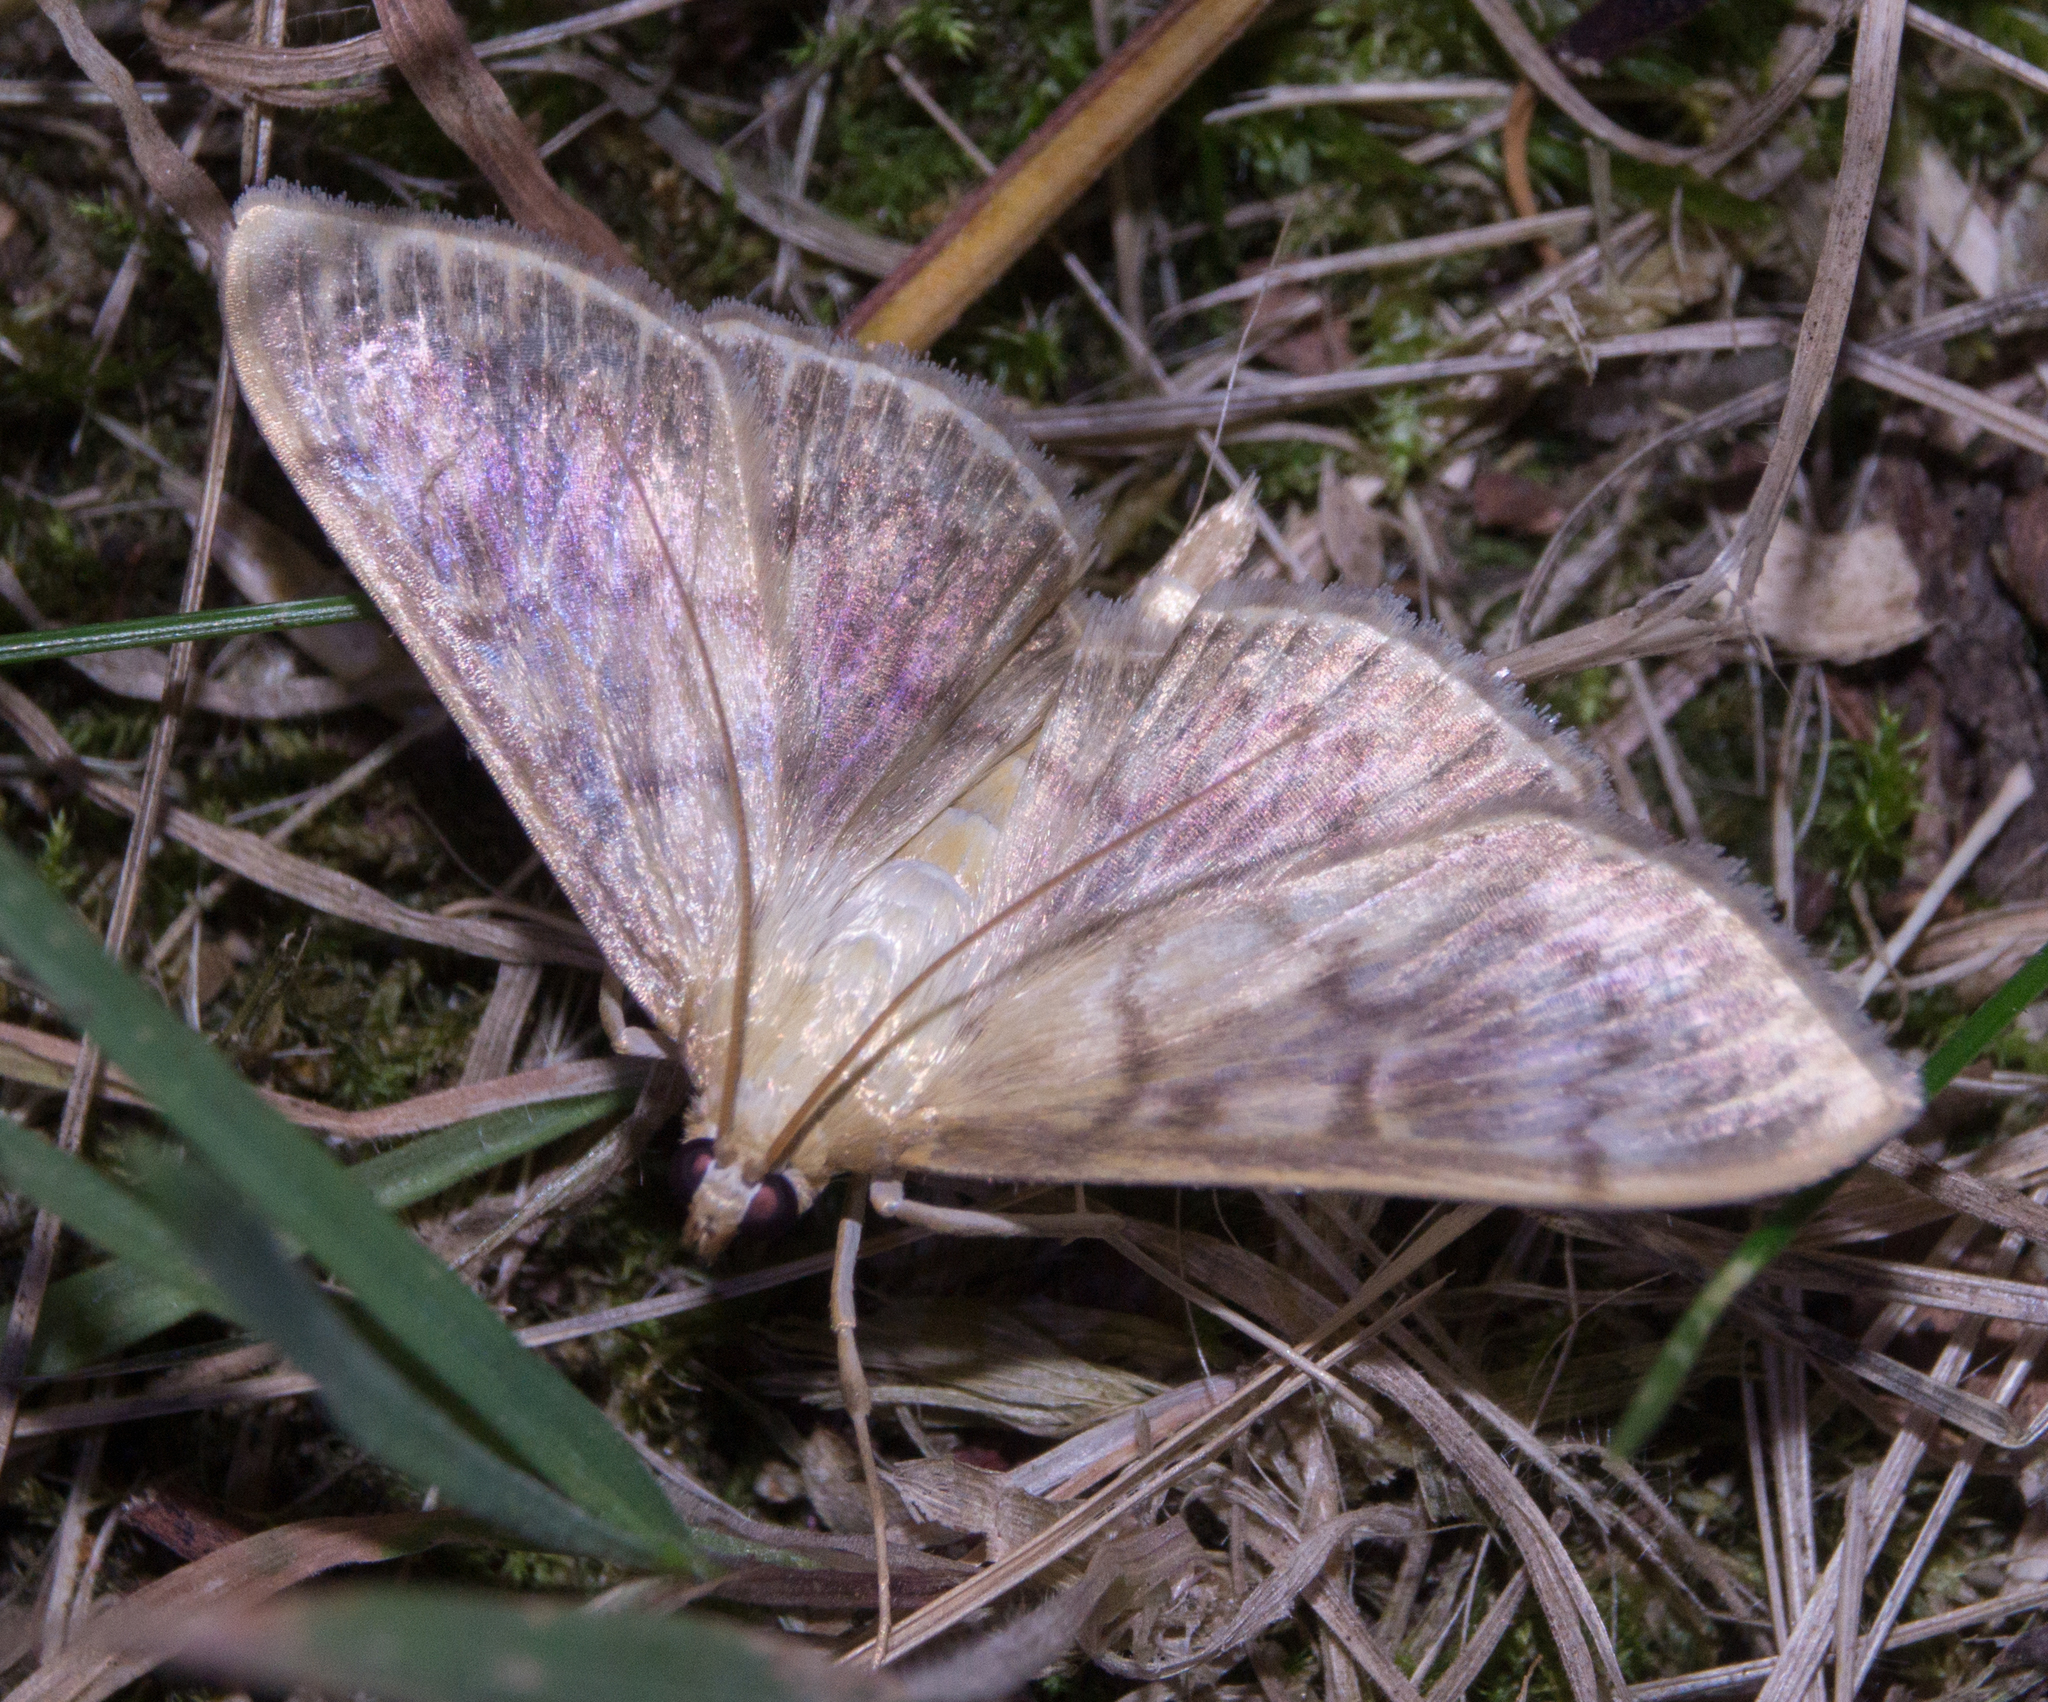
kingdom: Animalia
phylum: Arthropoda
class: Insecta
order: Lepidoptera
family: Crambidae
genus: Patania
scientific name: Patania ruralis
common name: Mother of pearl
